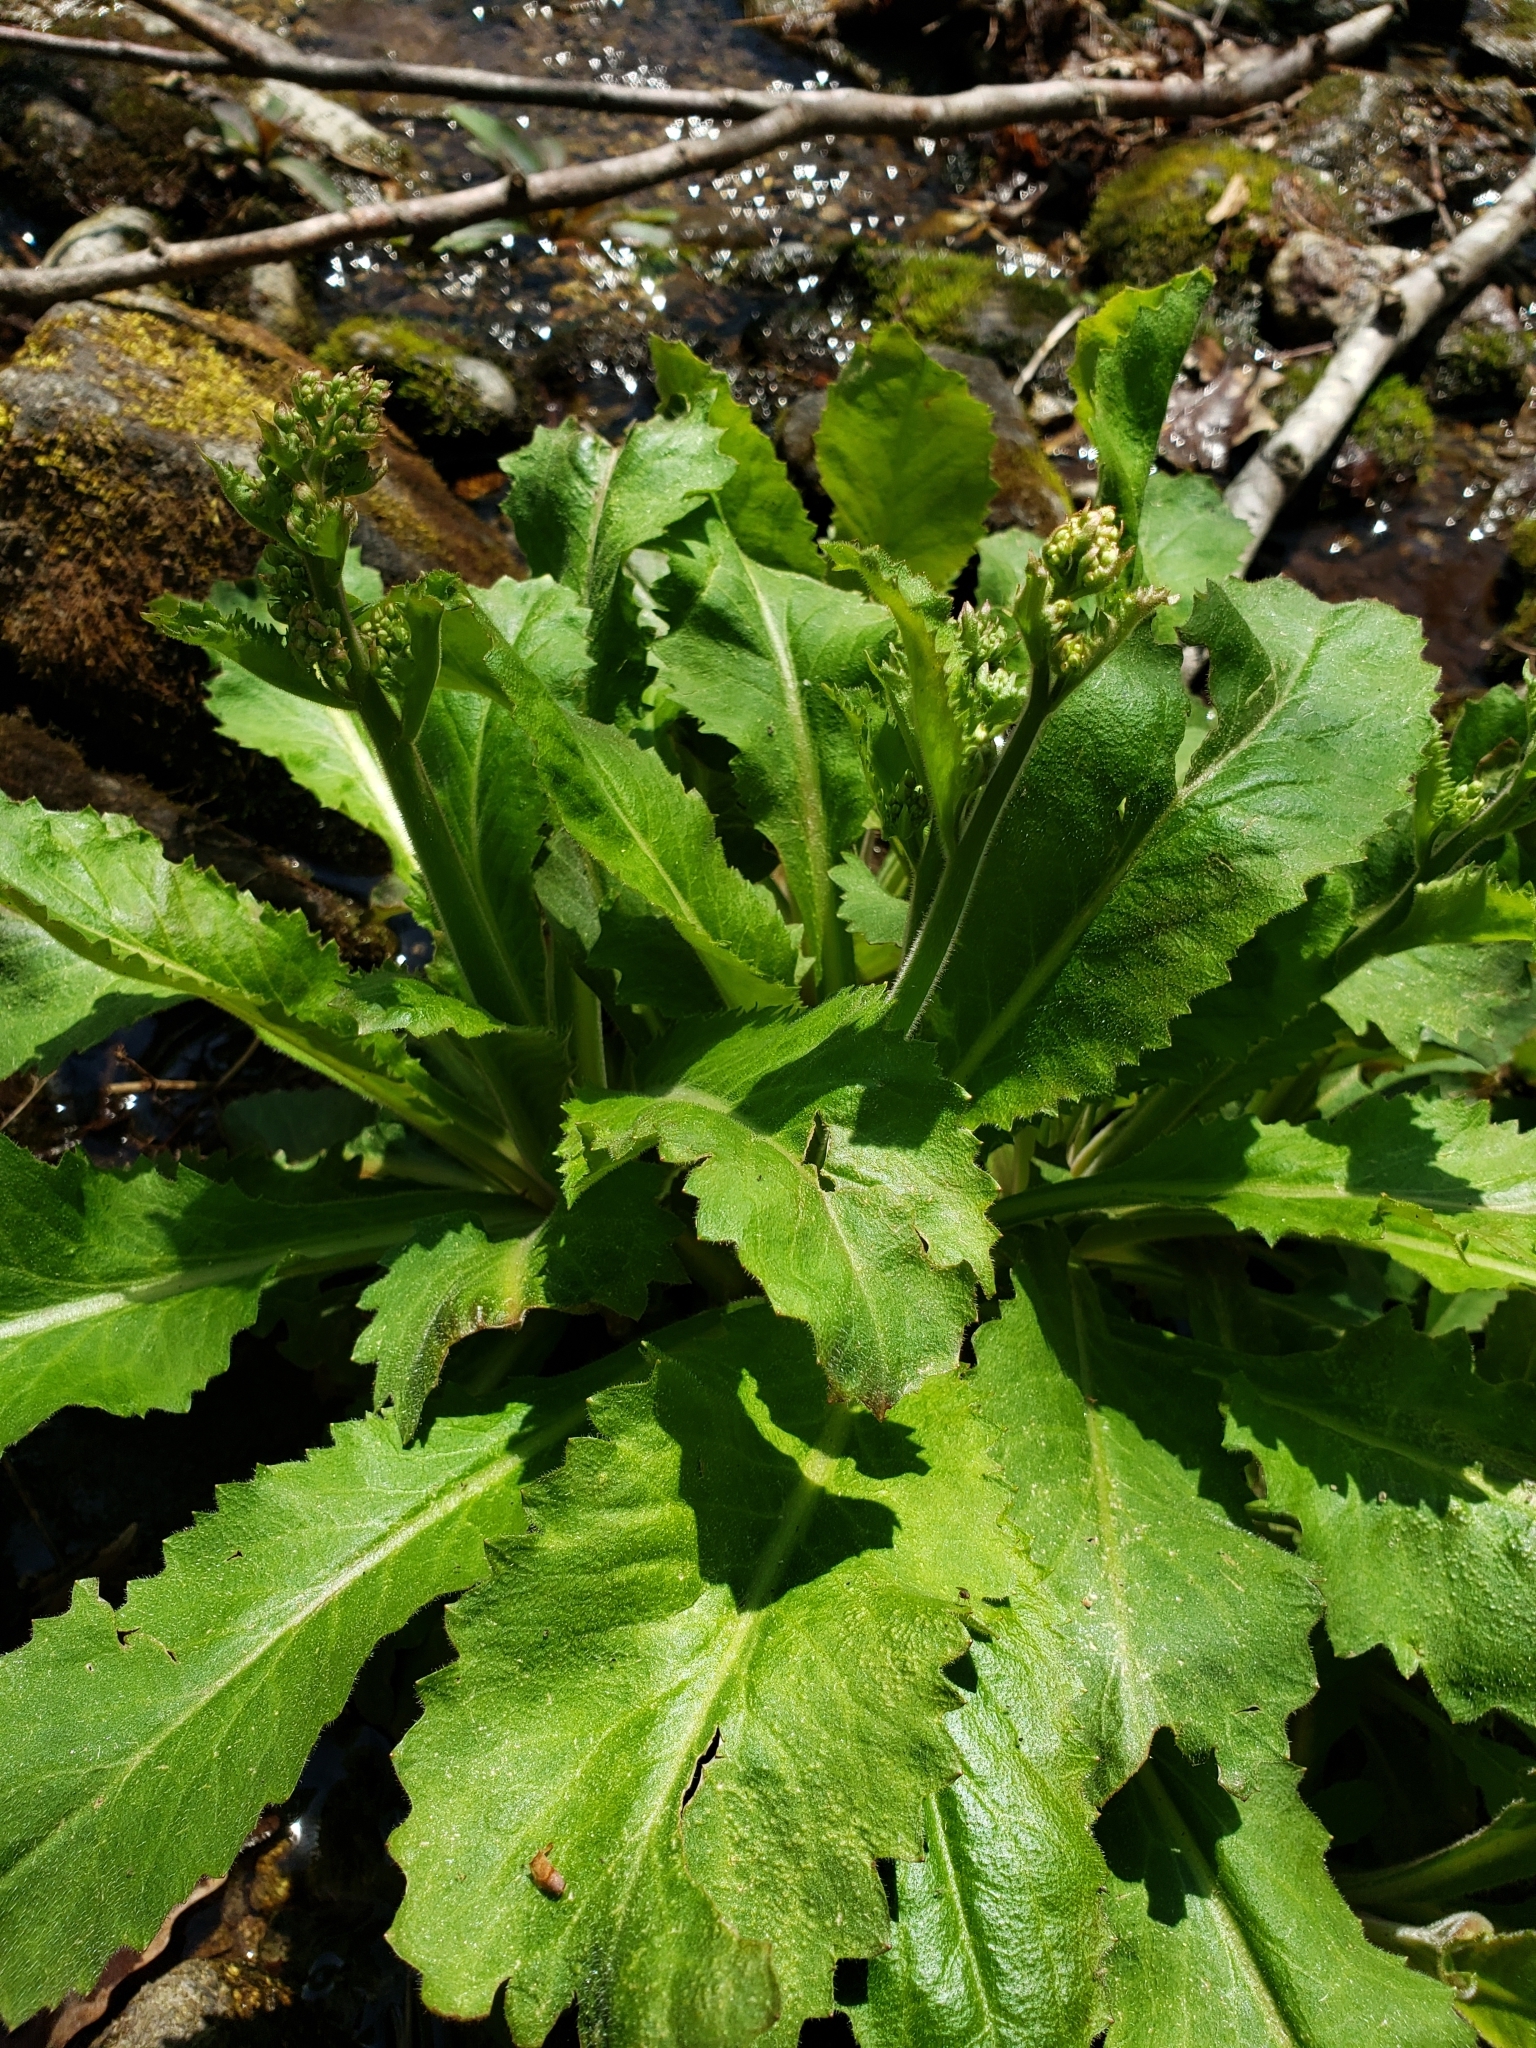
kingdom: Plantae
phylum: Tracheophyta
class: Magnoliopsida
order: Saxifragales
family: Saxifragaceae
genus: Micranthes
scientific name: Micranthes micranthidifolia
